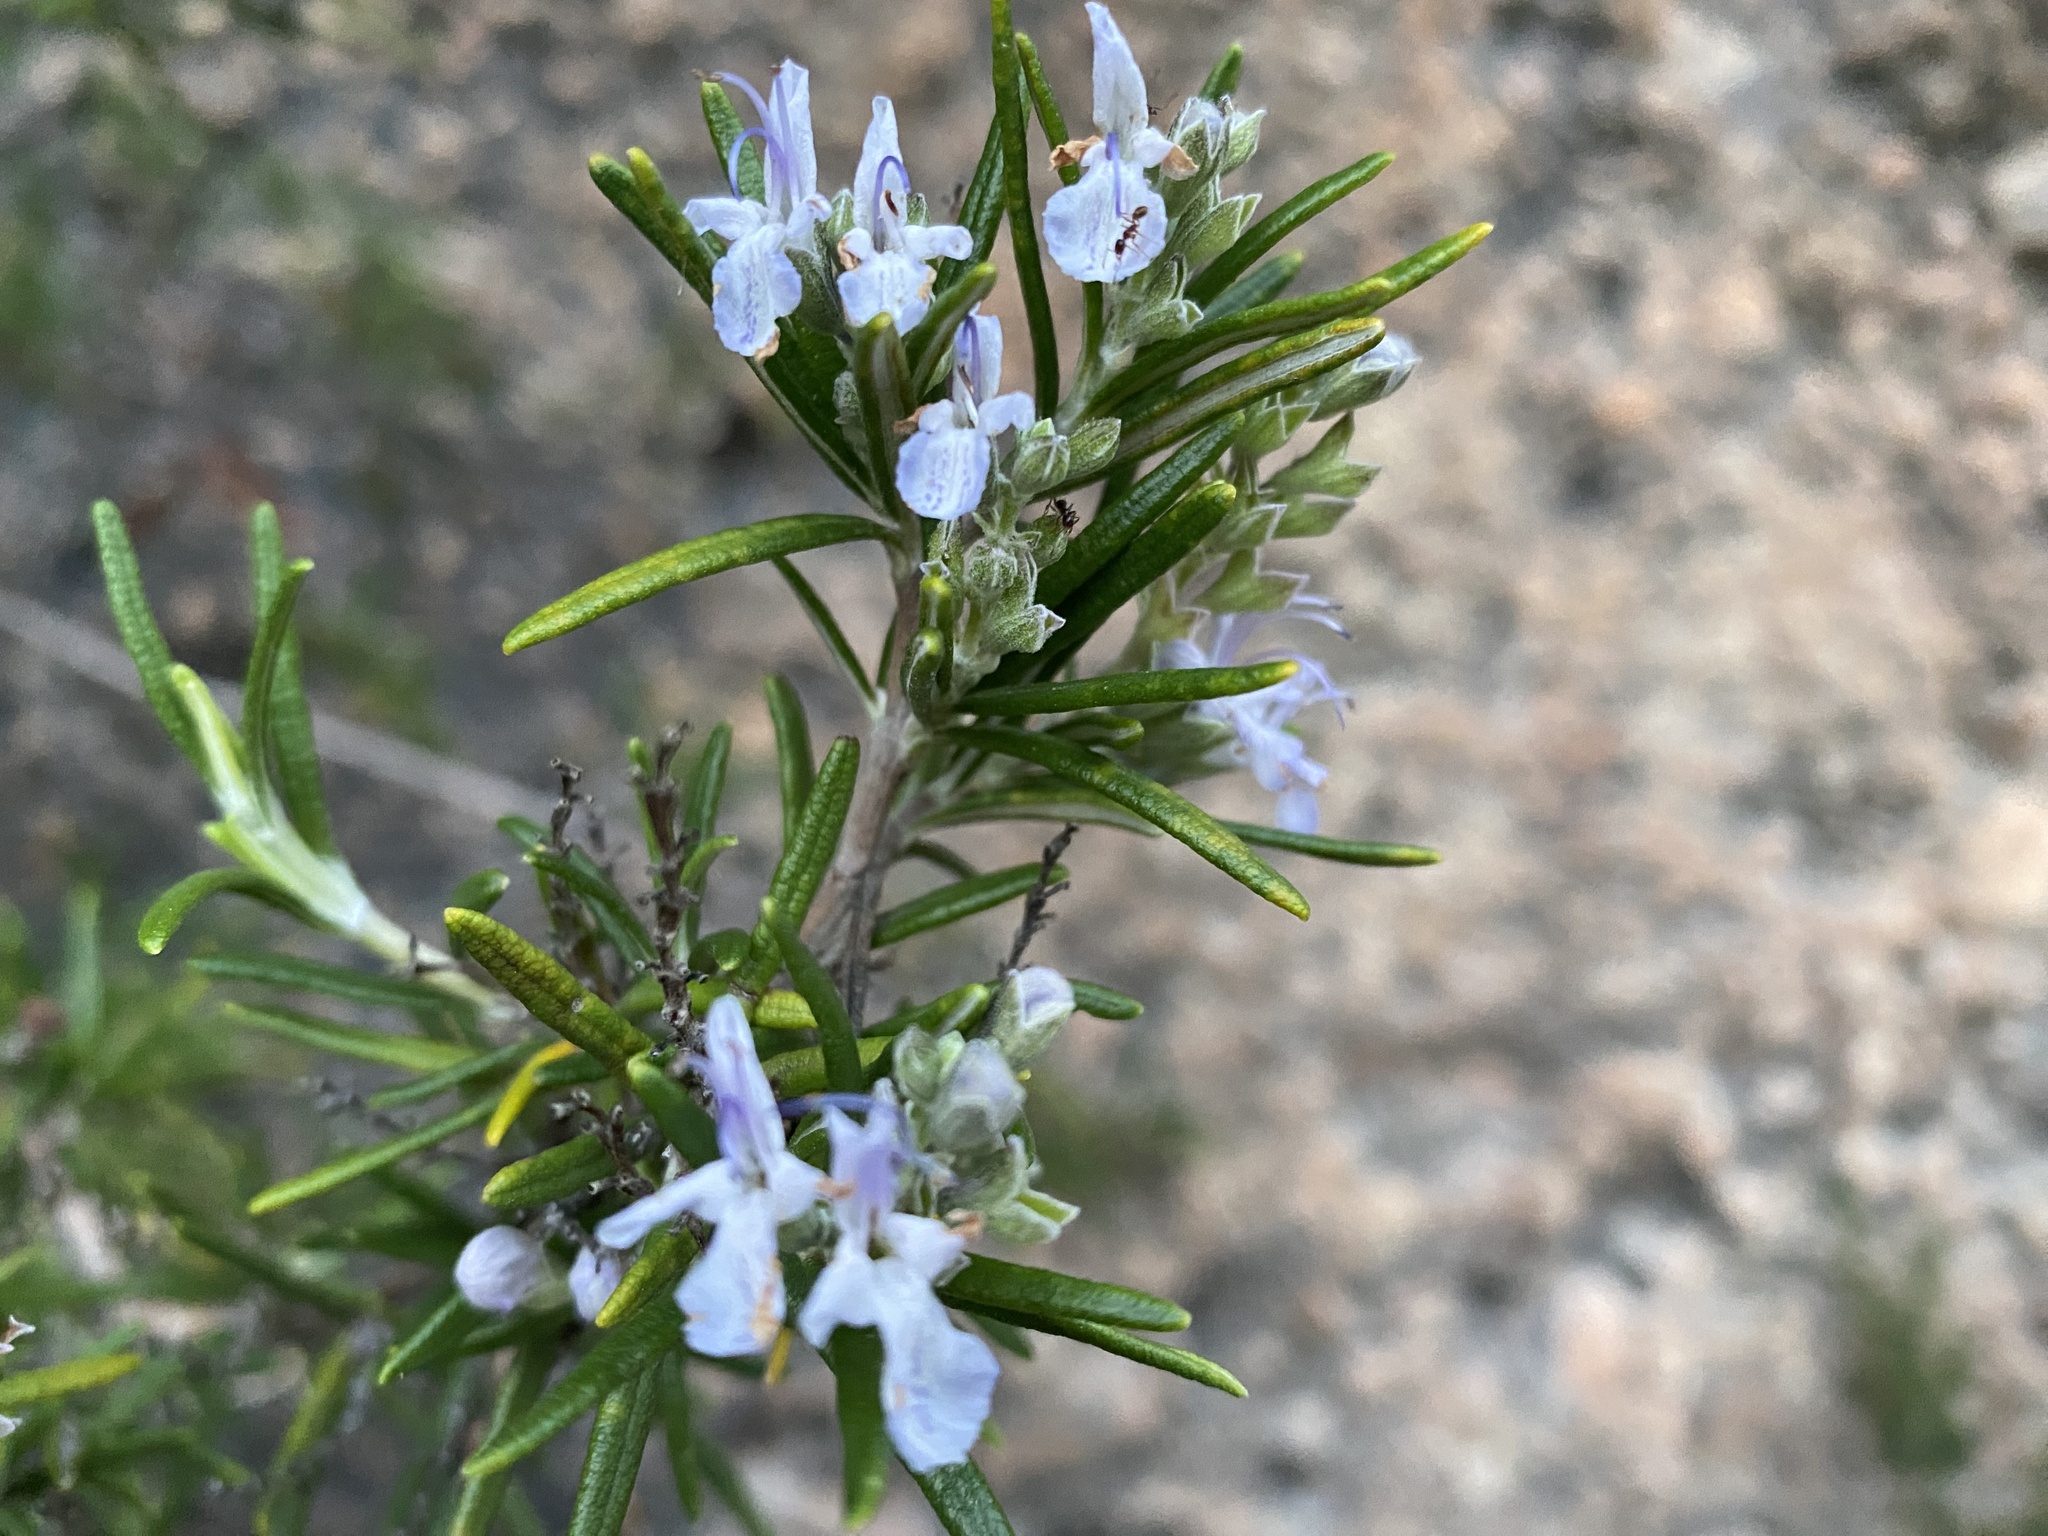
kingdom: Plantae
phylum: Tracheophyta
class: Magnoliopsida
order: Lamiales
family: Lamiaceae
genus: Salvia
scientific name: Salvia rosmarinus
